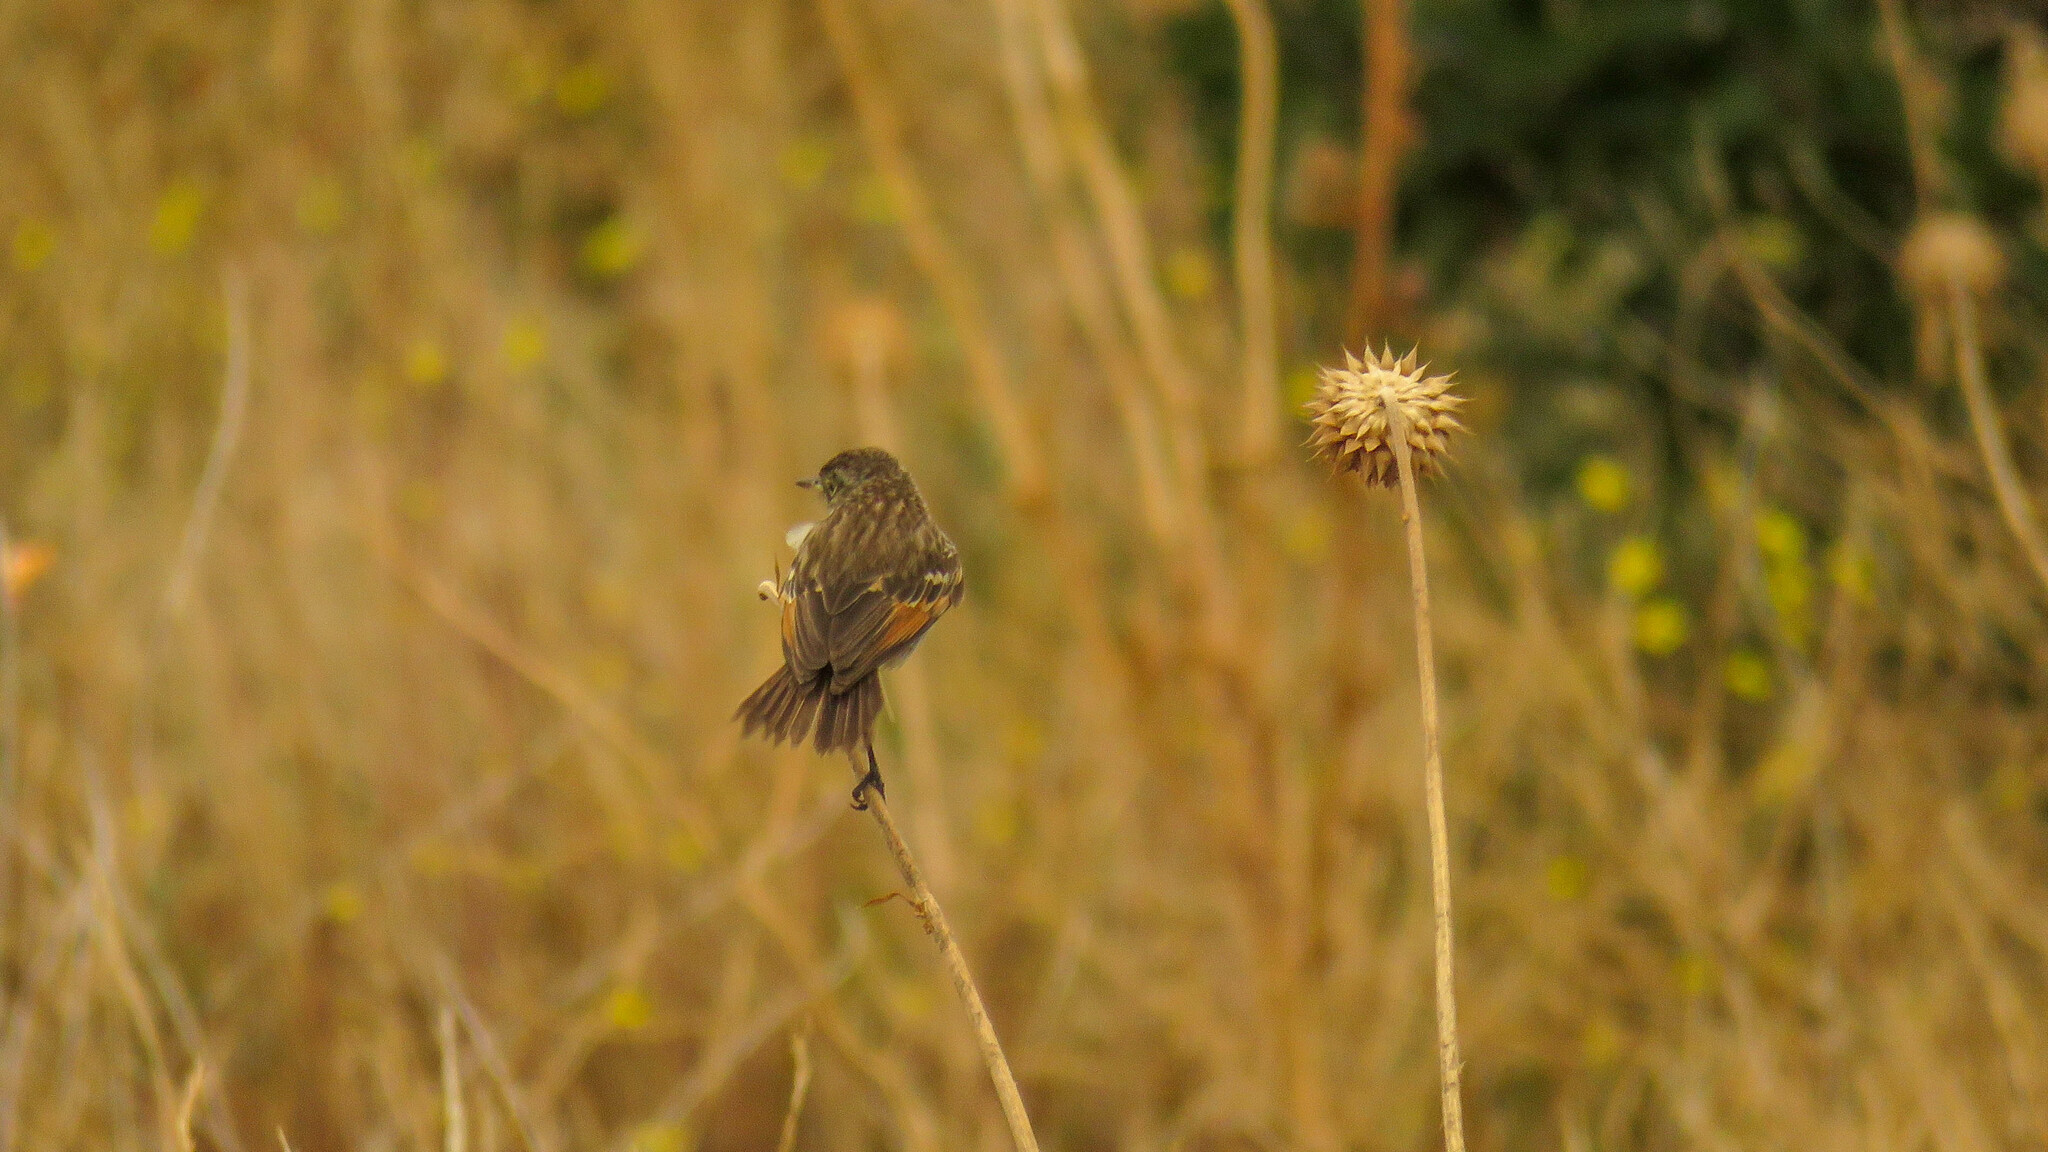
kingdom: Animalia
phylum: Chordata
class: Aves
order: Passeriformes
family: Tyrannidae
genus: Hymenops
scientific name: Hymenops perspicillatus
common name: Spectacled tyrant
